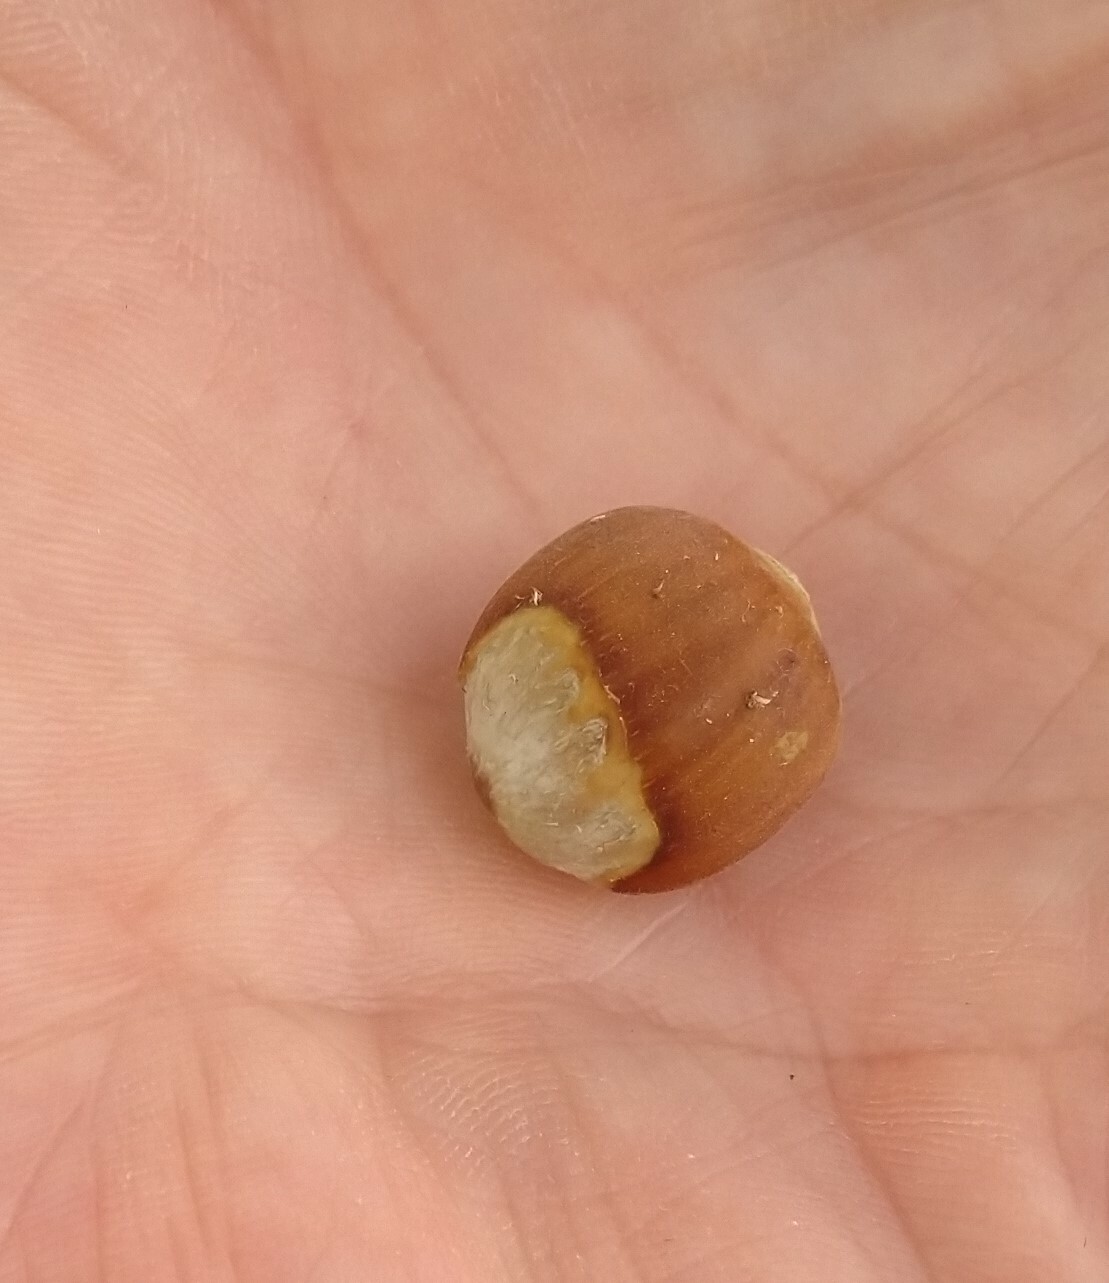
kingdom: Plantae
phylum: Tracheophyta
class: Magnoliopsida
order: Fagales
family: Betulaceae
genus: Corylus
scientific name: Corylus americana
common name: American hazel
